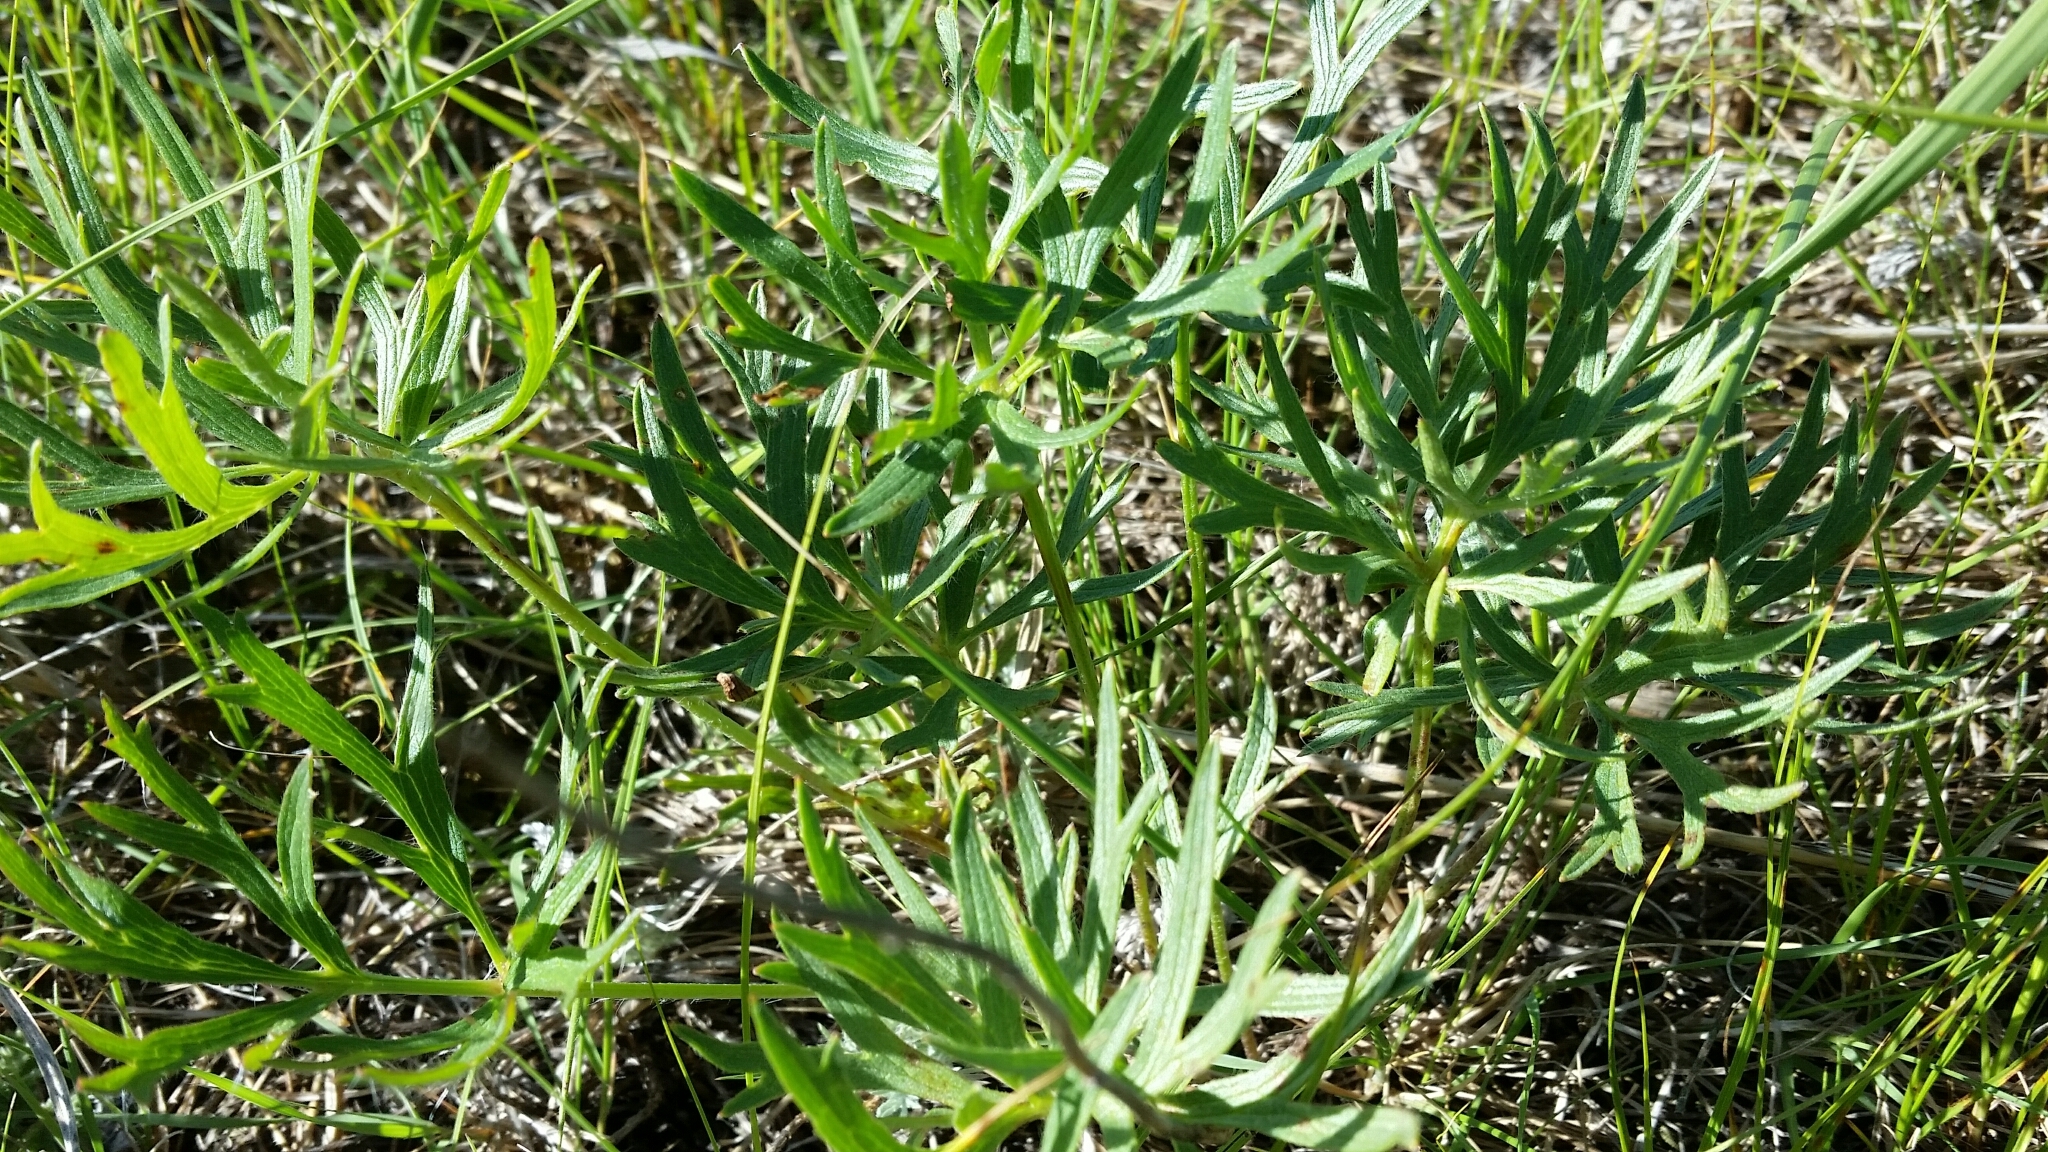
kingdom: Plantae
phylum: Tracheophyta
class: Magnoliopsida
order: Ranunculales
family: Ranunculaceae
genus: Pulsatilla
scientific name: Pulsatilla nuttalliana
